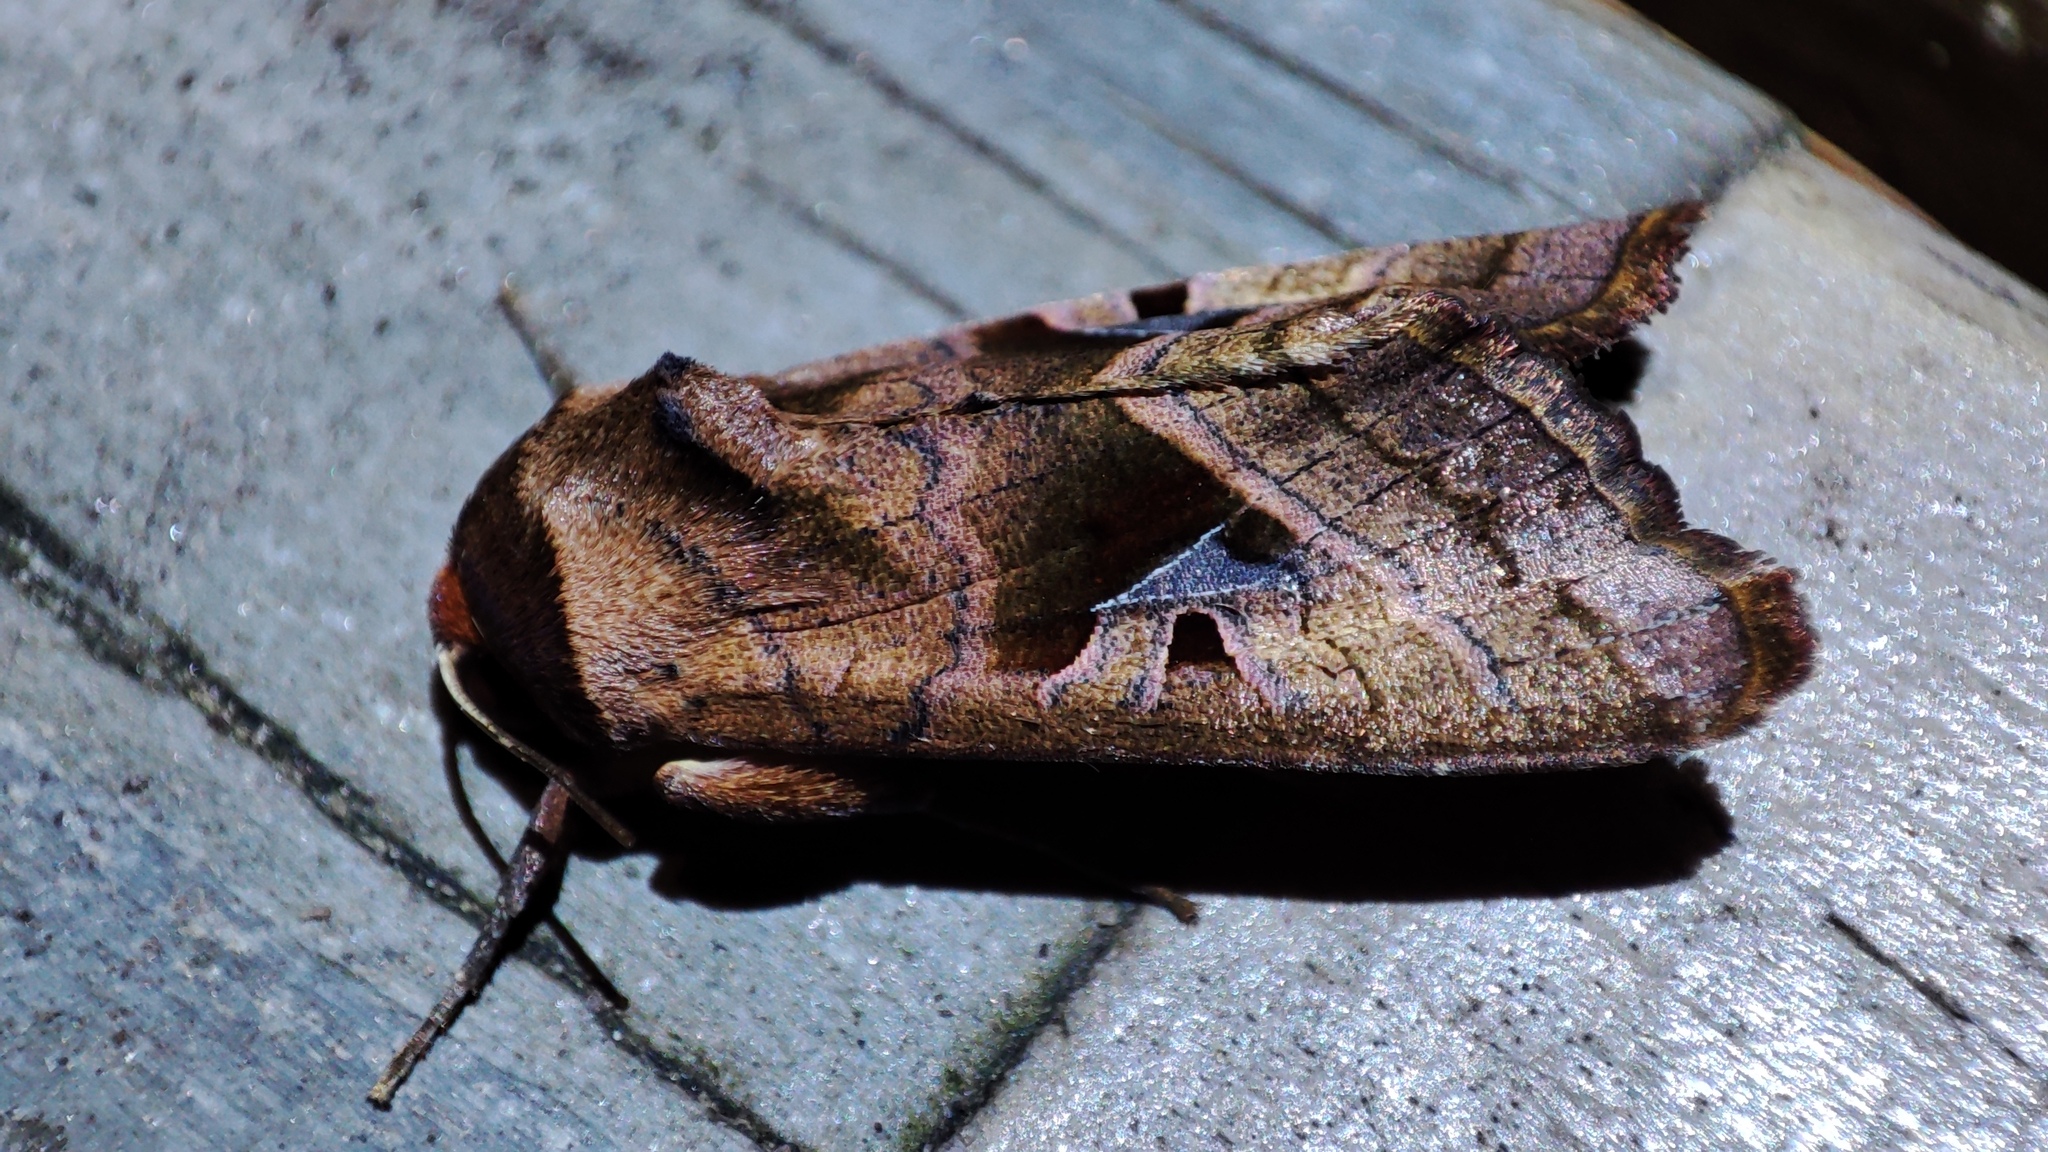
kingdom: Animalia
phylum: Arthropoda
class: Insecta
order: Lepidoptera
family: Noctuidae
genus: Conservula
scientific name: Conservula cinisigna
